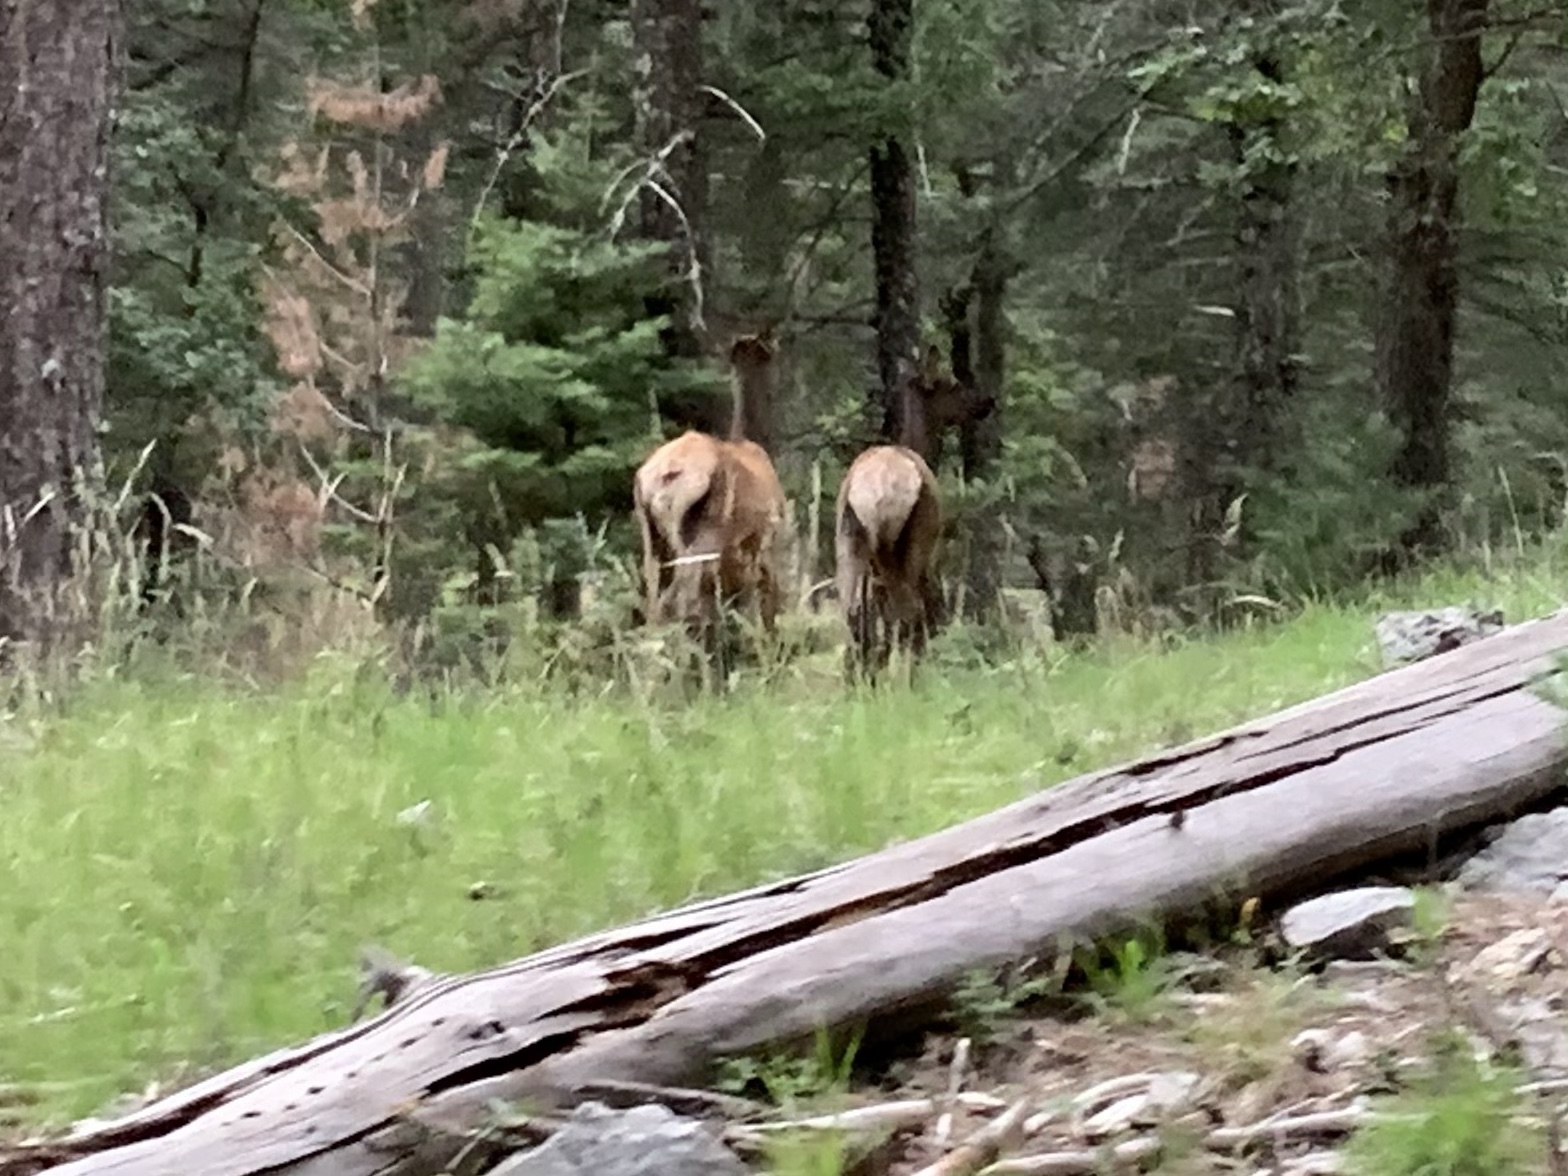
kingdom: Animalia
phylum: Chordata
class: Mammalia
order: Artiodactyla
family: Cervidae
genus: Cervus
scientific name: Cervus elaphus
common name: Red deer
